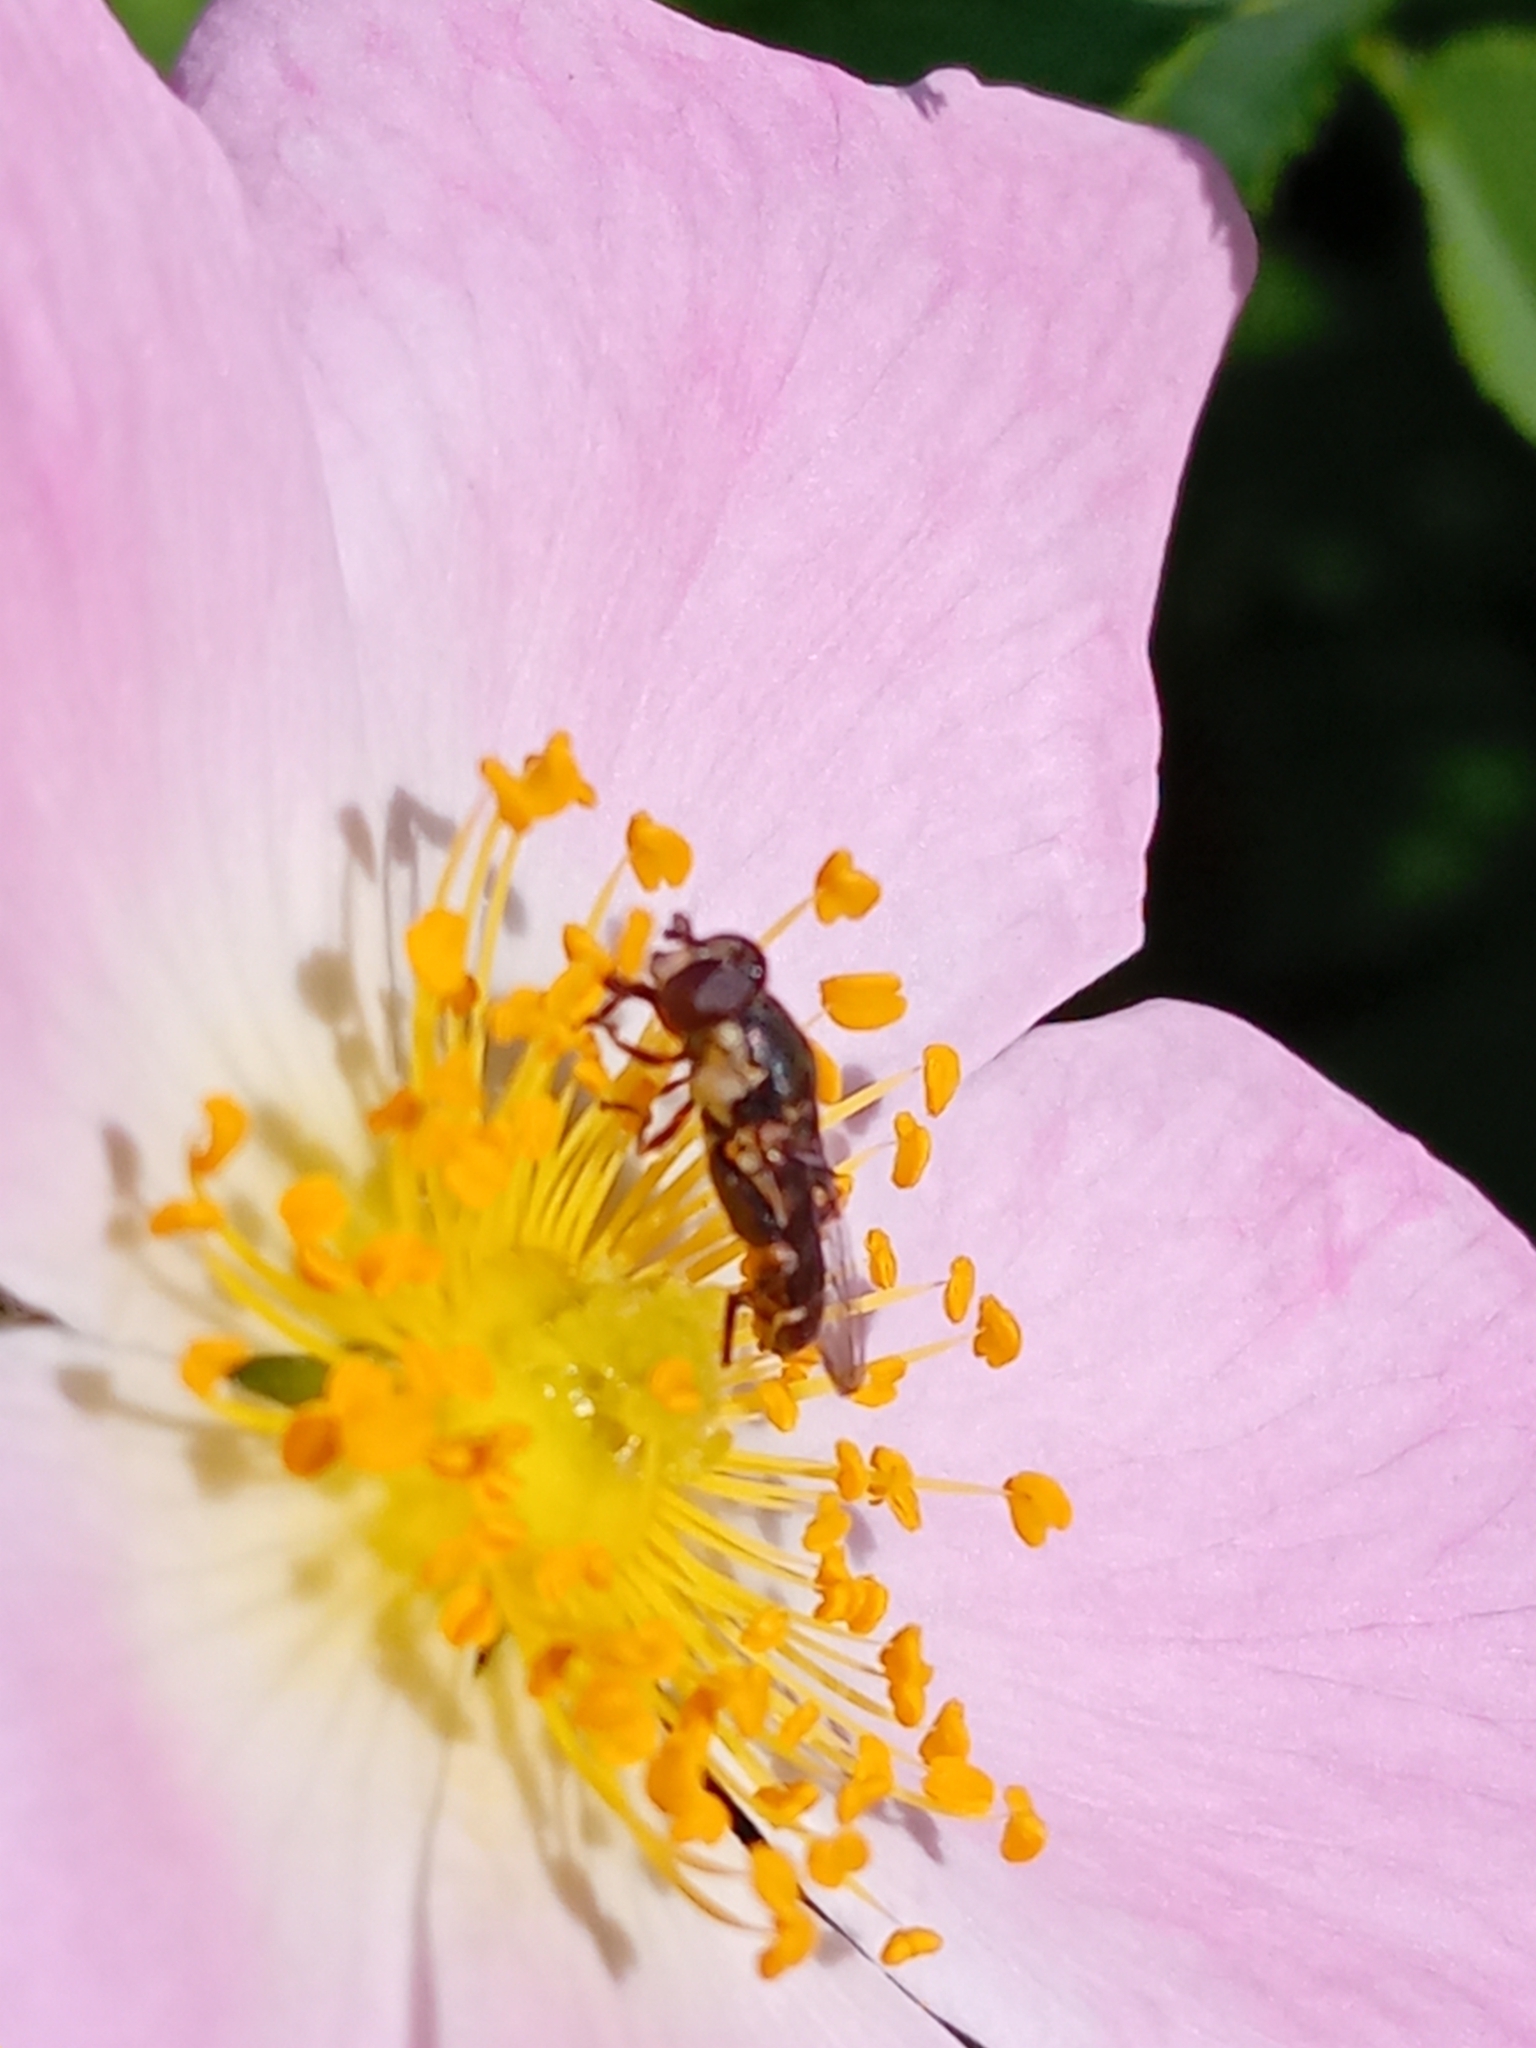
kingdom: Animalia
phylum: Arthropoda
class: Insecta
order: Diptera
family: Syrphidae
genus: Syritta
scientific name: Syritta pipiens
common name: Hover fly
